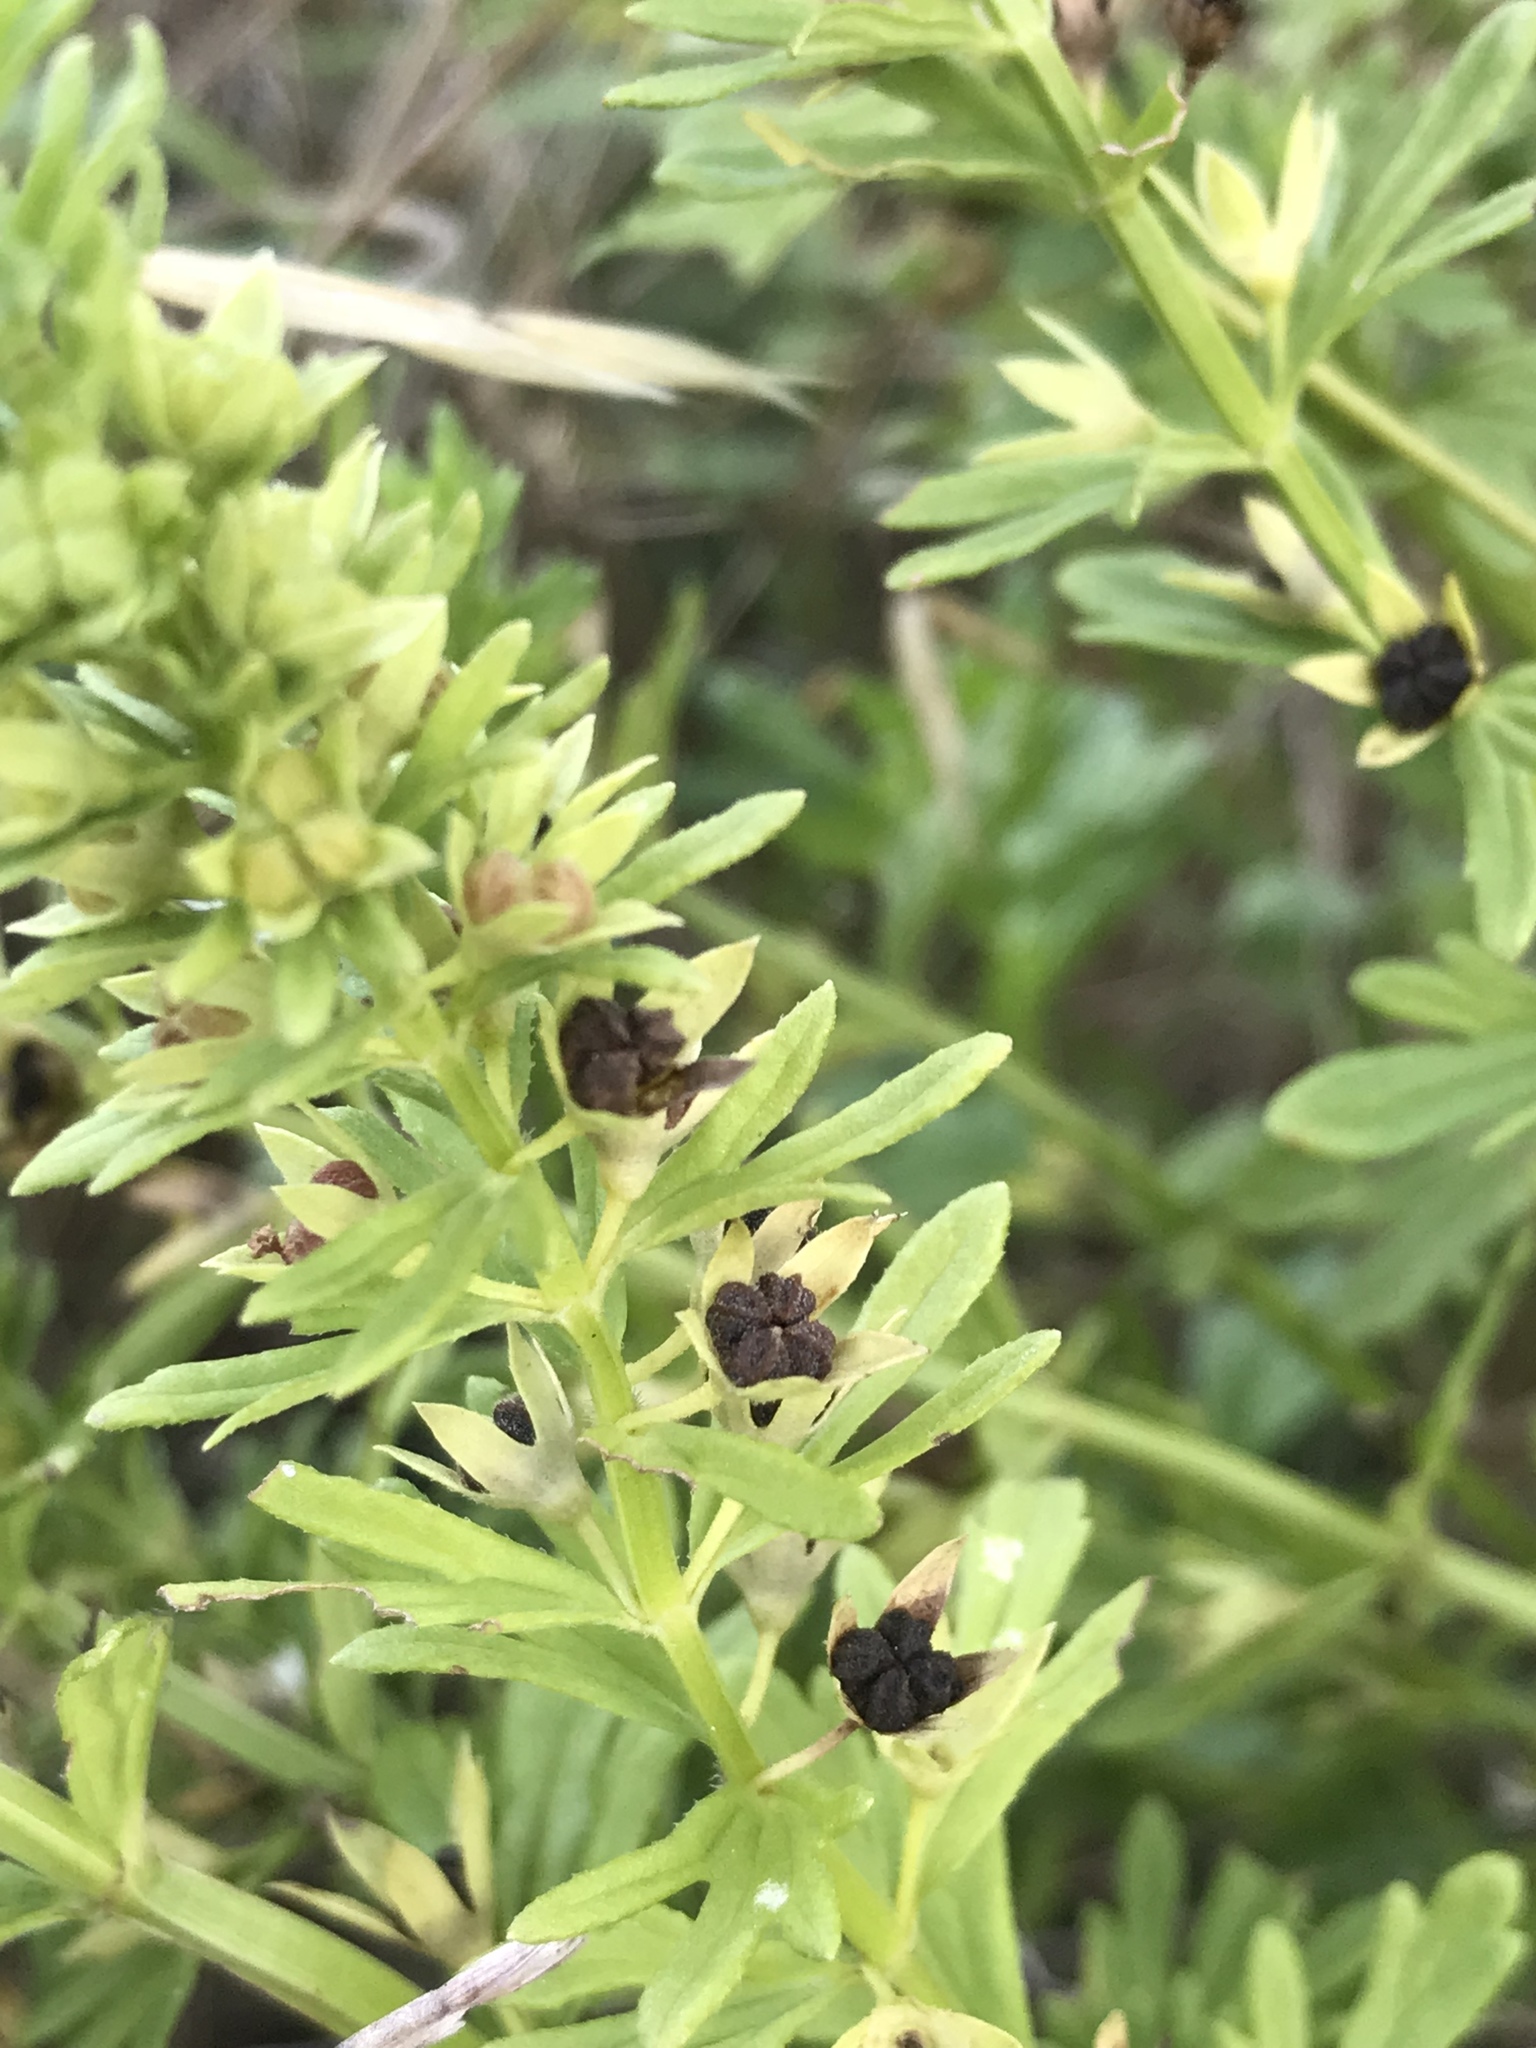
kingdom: Plantae
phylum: Tracheophyta
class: Magnoliopsida
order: Lamiales
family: Lamiaceae
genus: Teucrium
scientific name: Teucrium cubense
